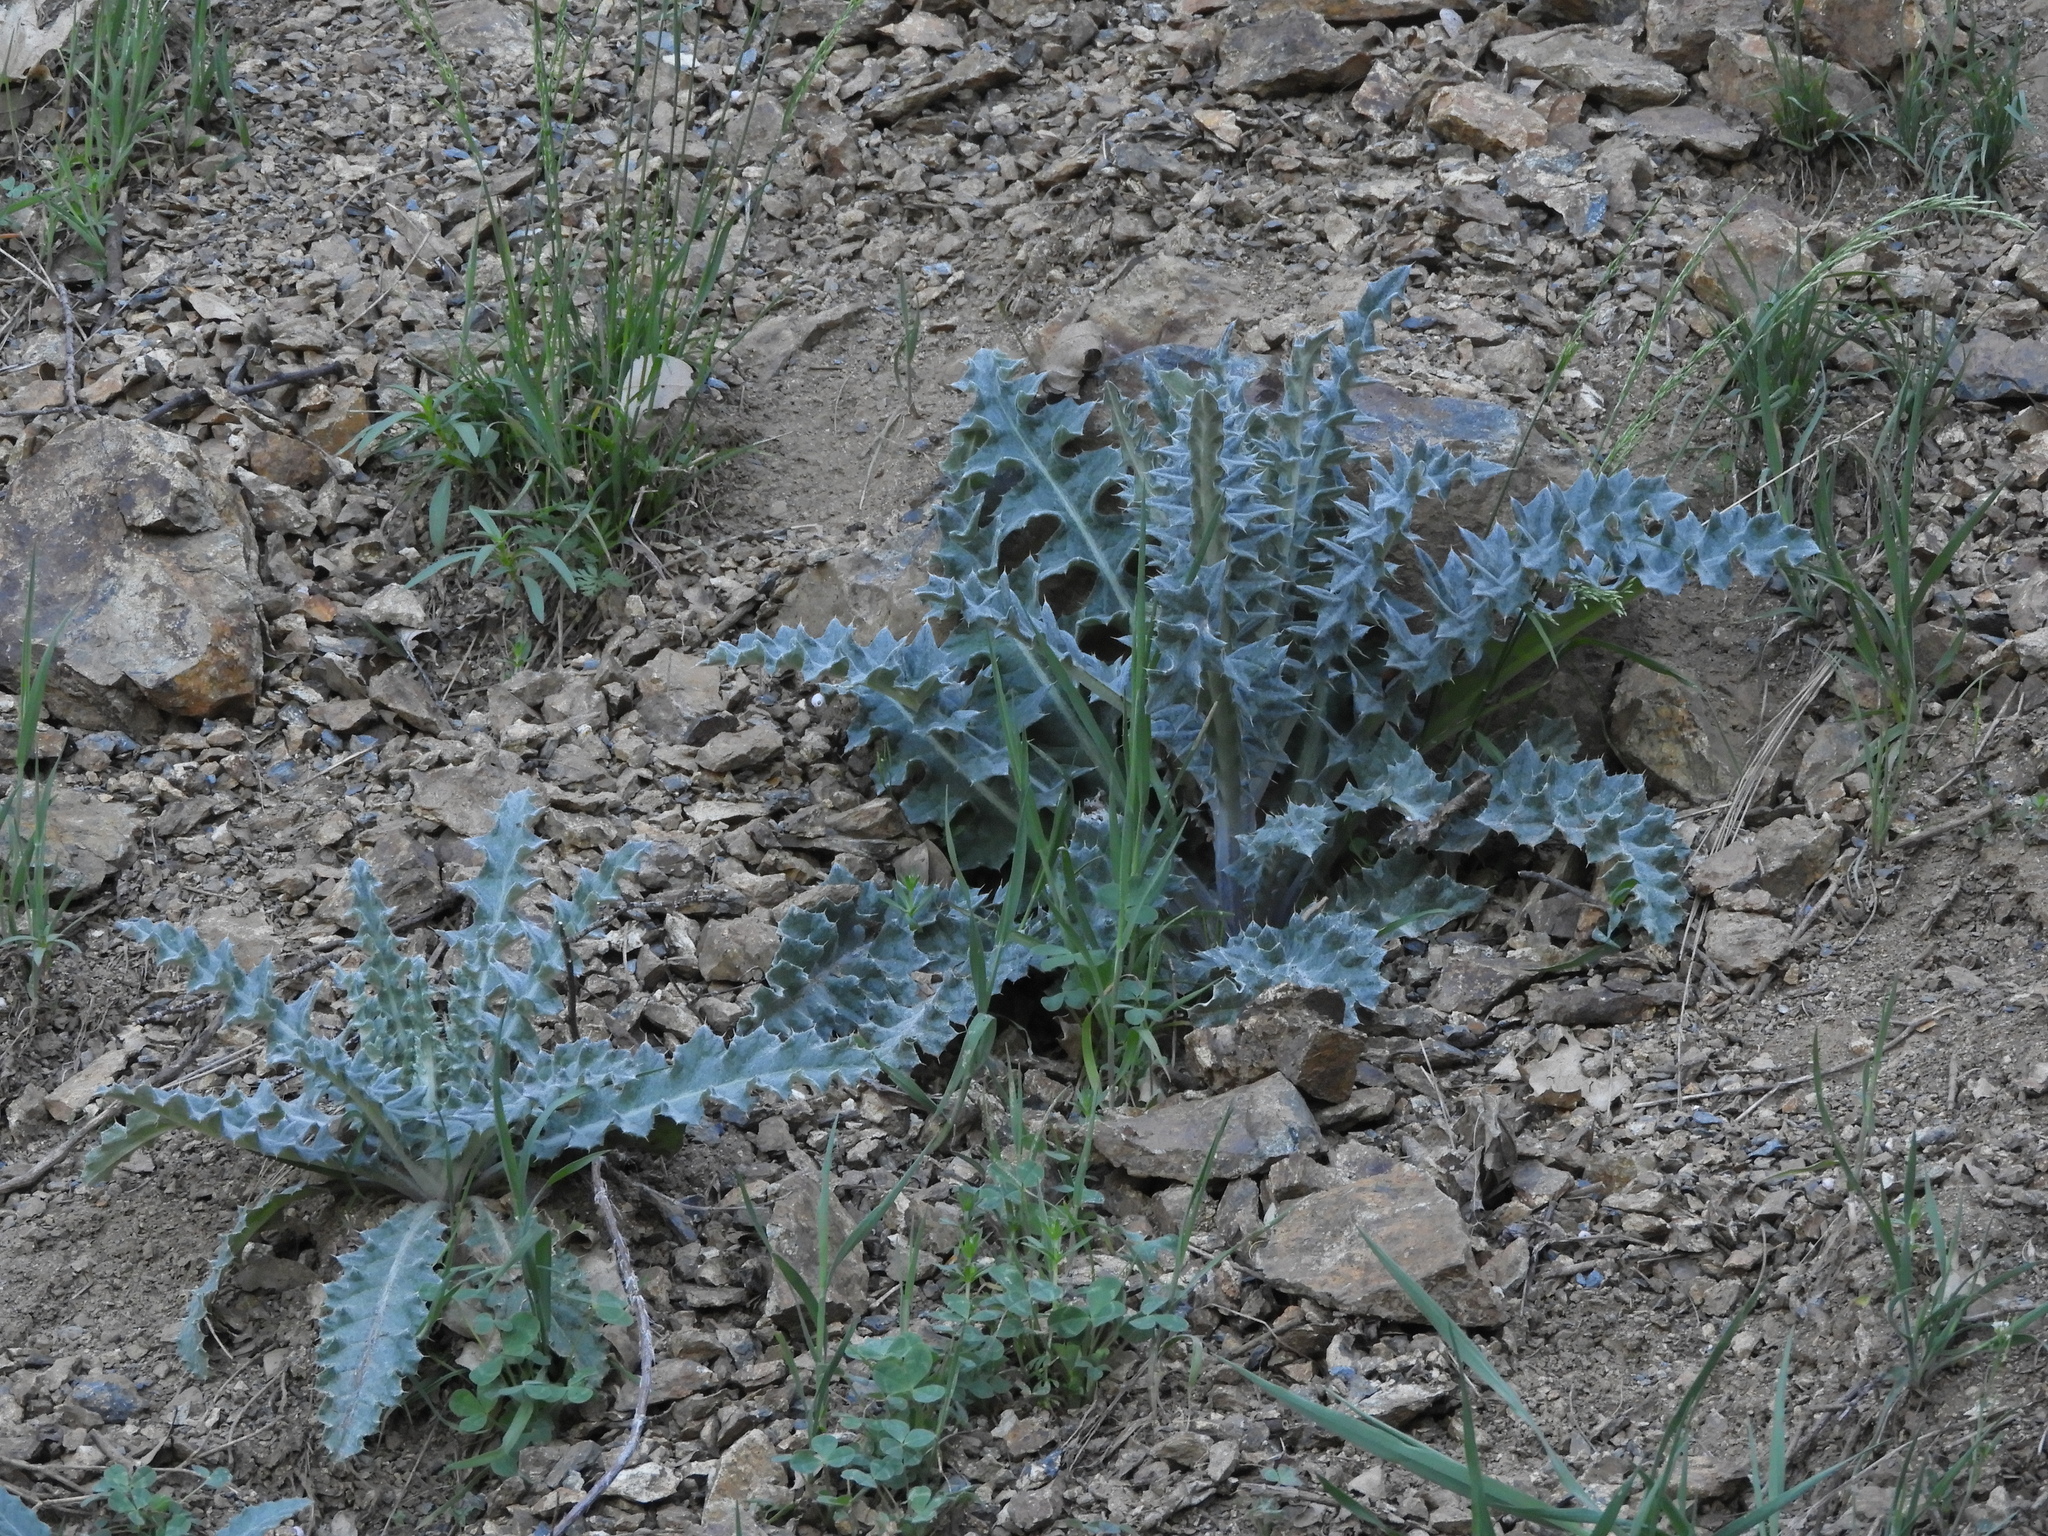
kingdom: Plantae
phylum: Tracheophyta
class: Magnoliopsida
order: Asterales
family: Asteraceae
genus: Cirsium
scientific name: Cirsium occidentale
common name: Western thistle
